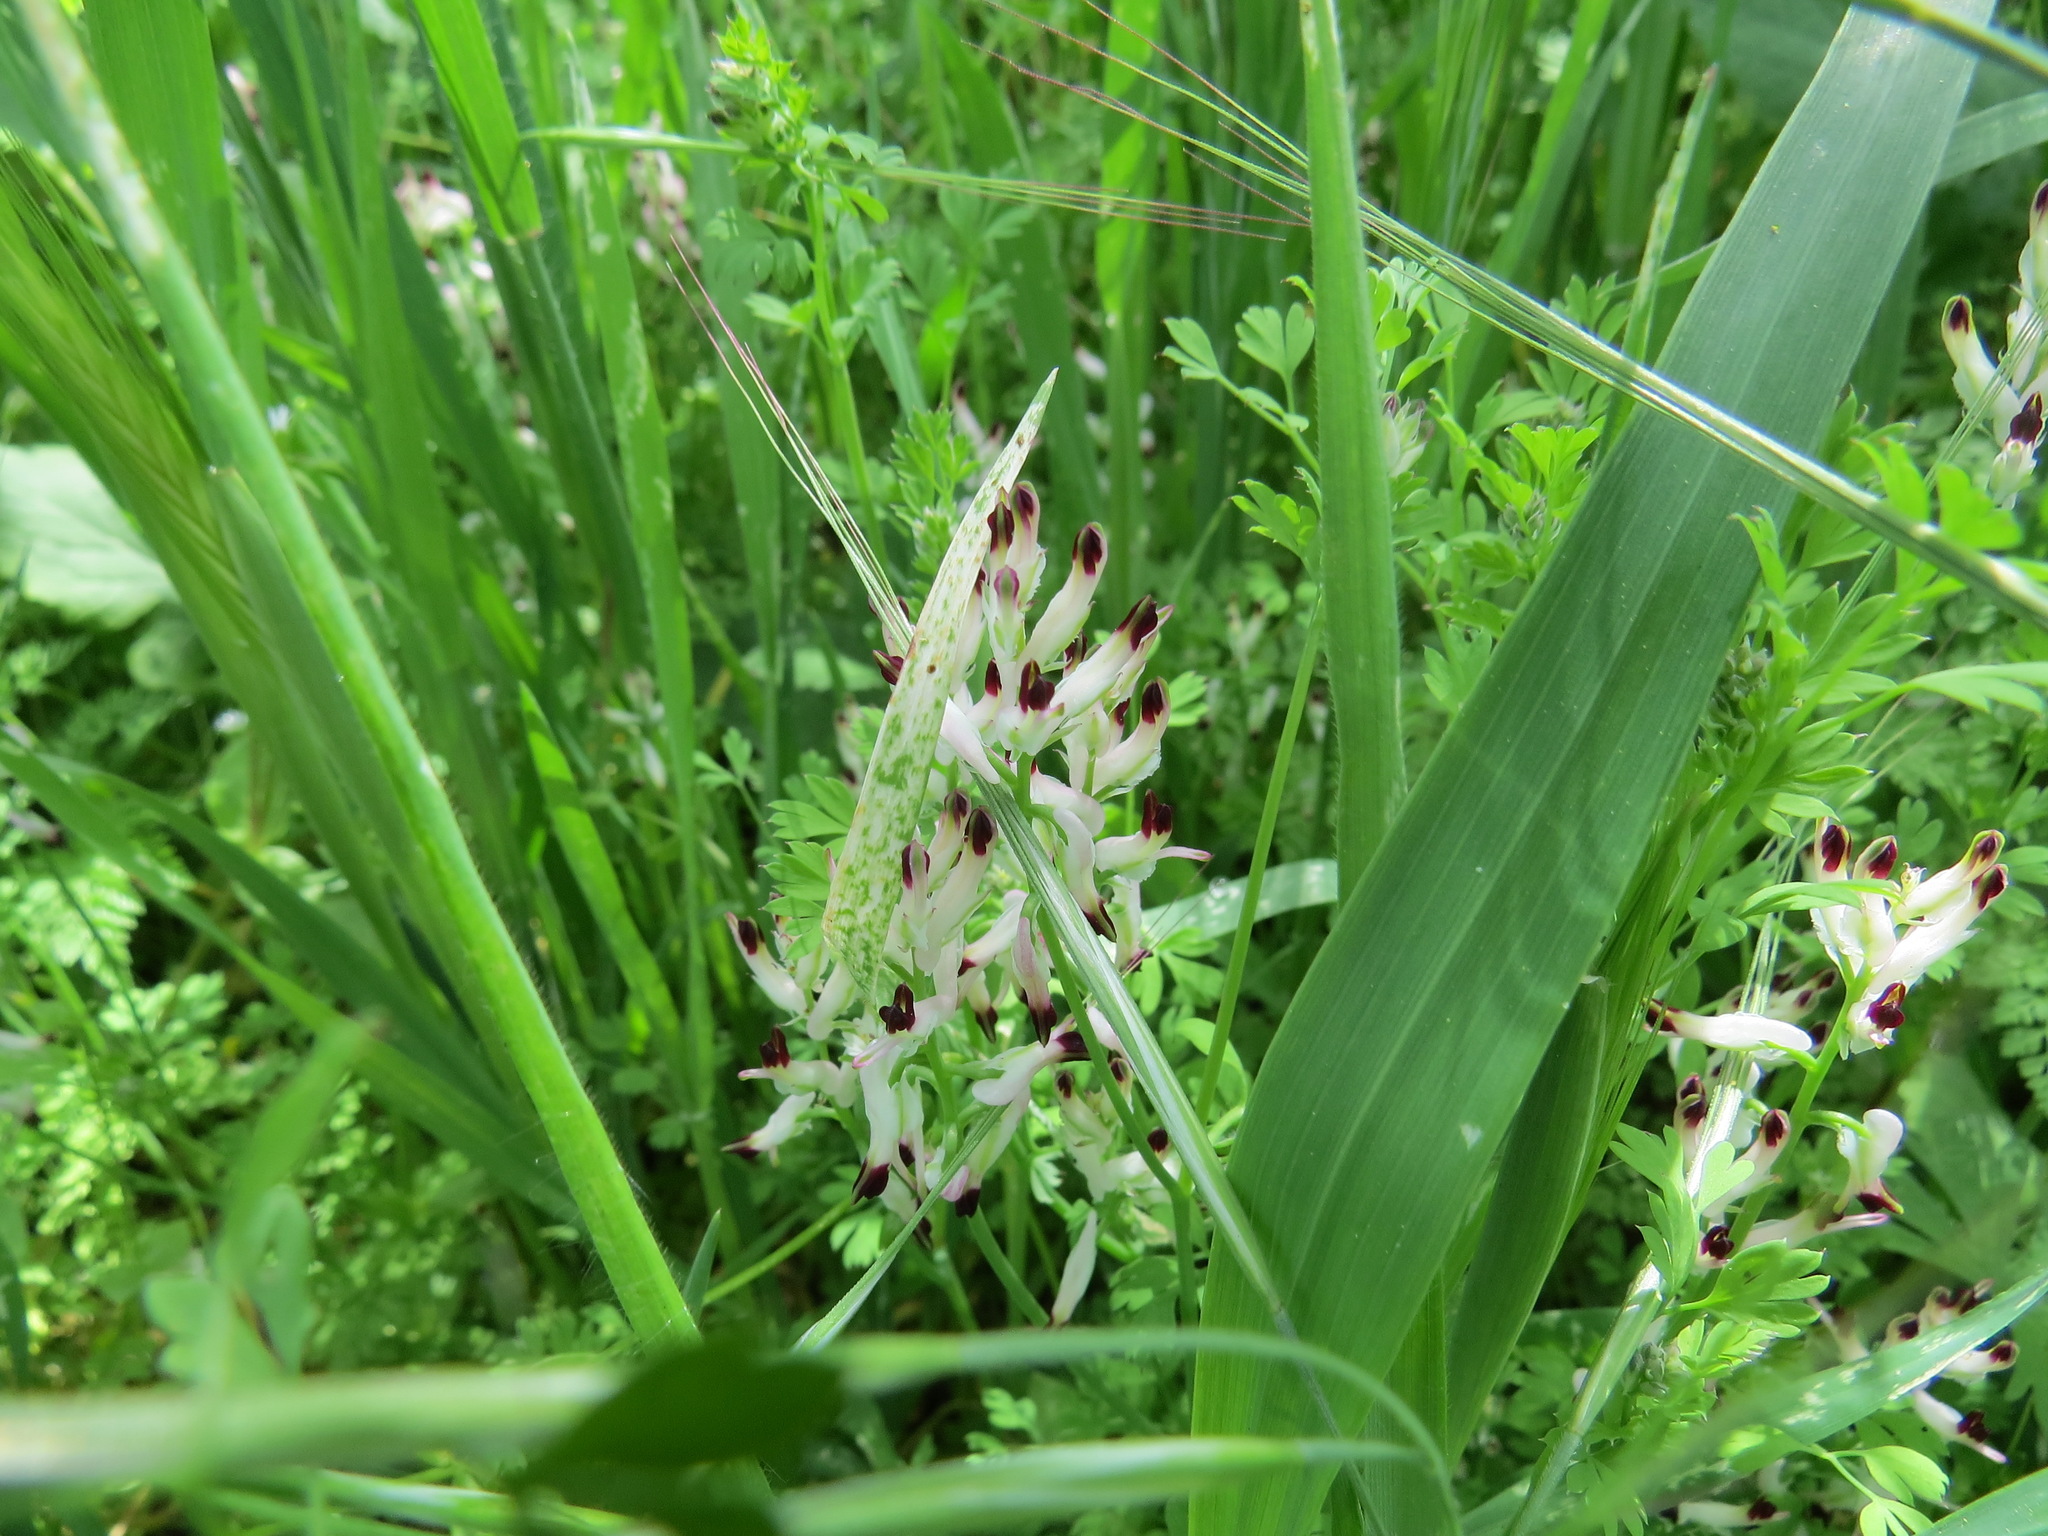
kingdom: Plantae
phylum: Tracheophyta
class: Magnoliopsida
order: Ranunculales
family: Papaveraceae
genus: Fumaria
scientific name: Fumaria capreolata
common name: White ramping-fumitory
